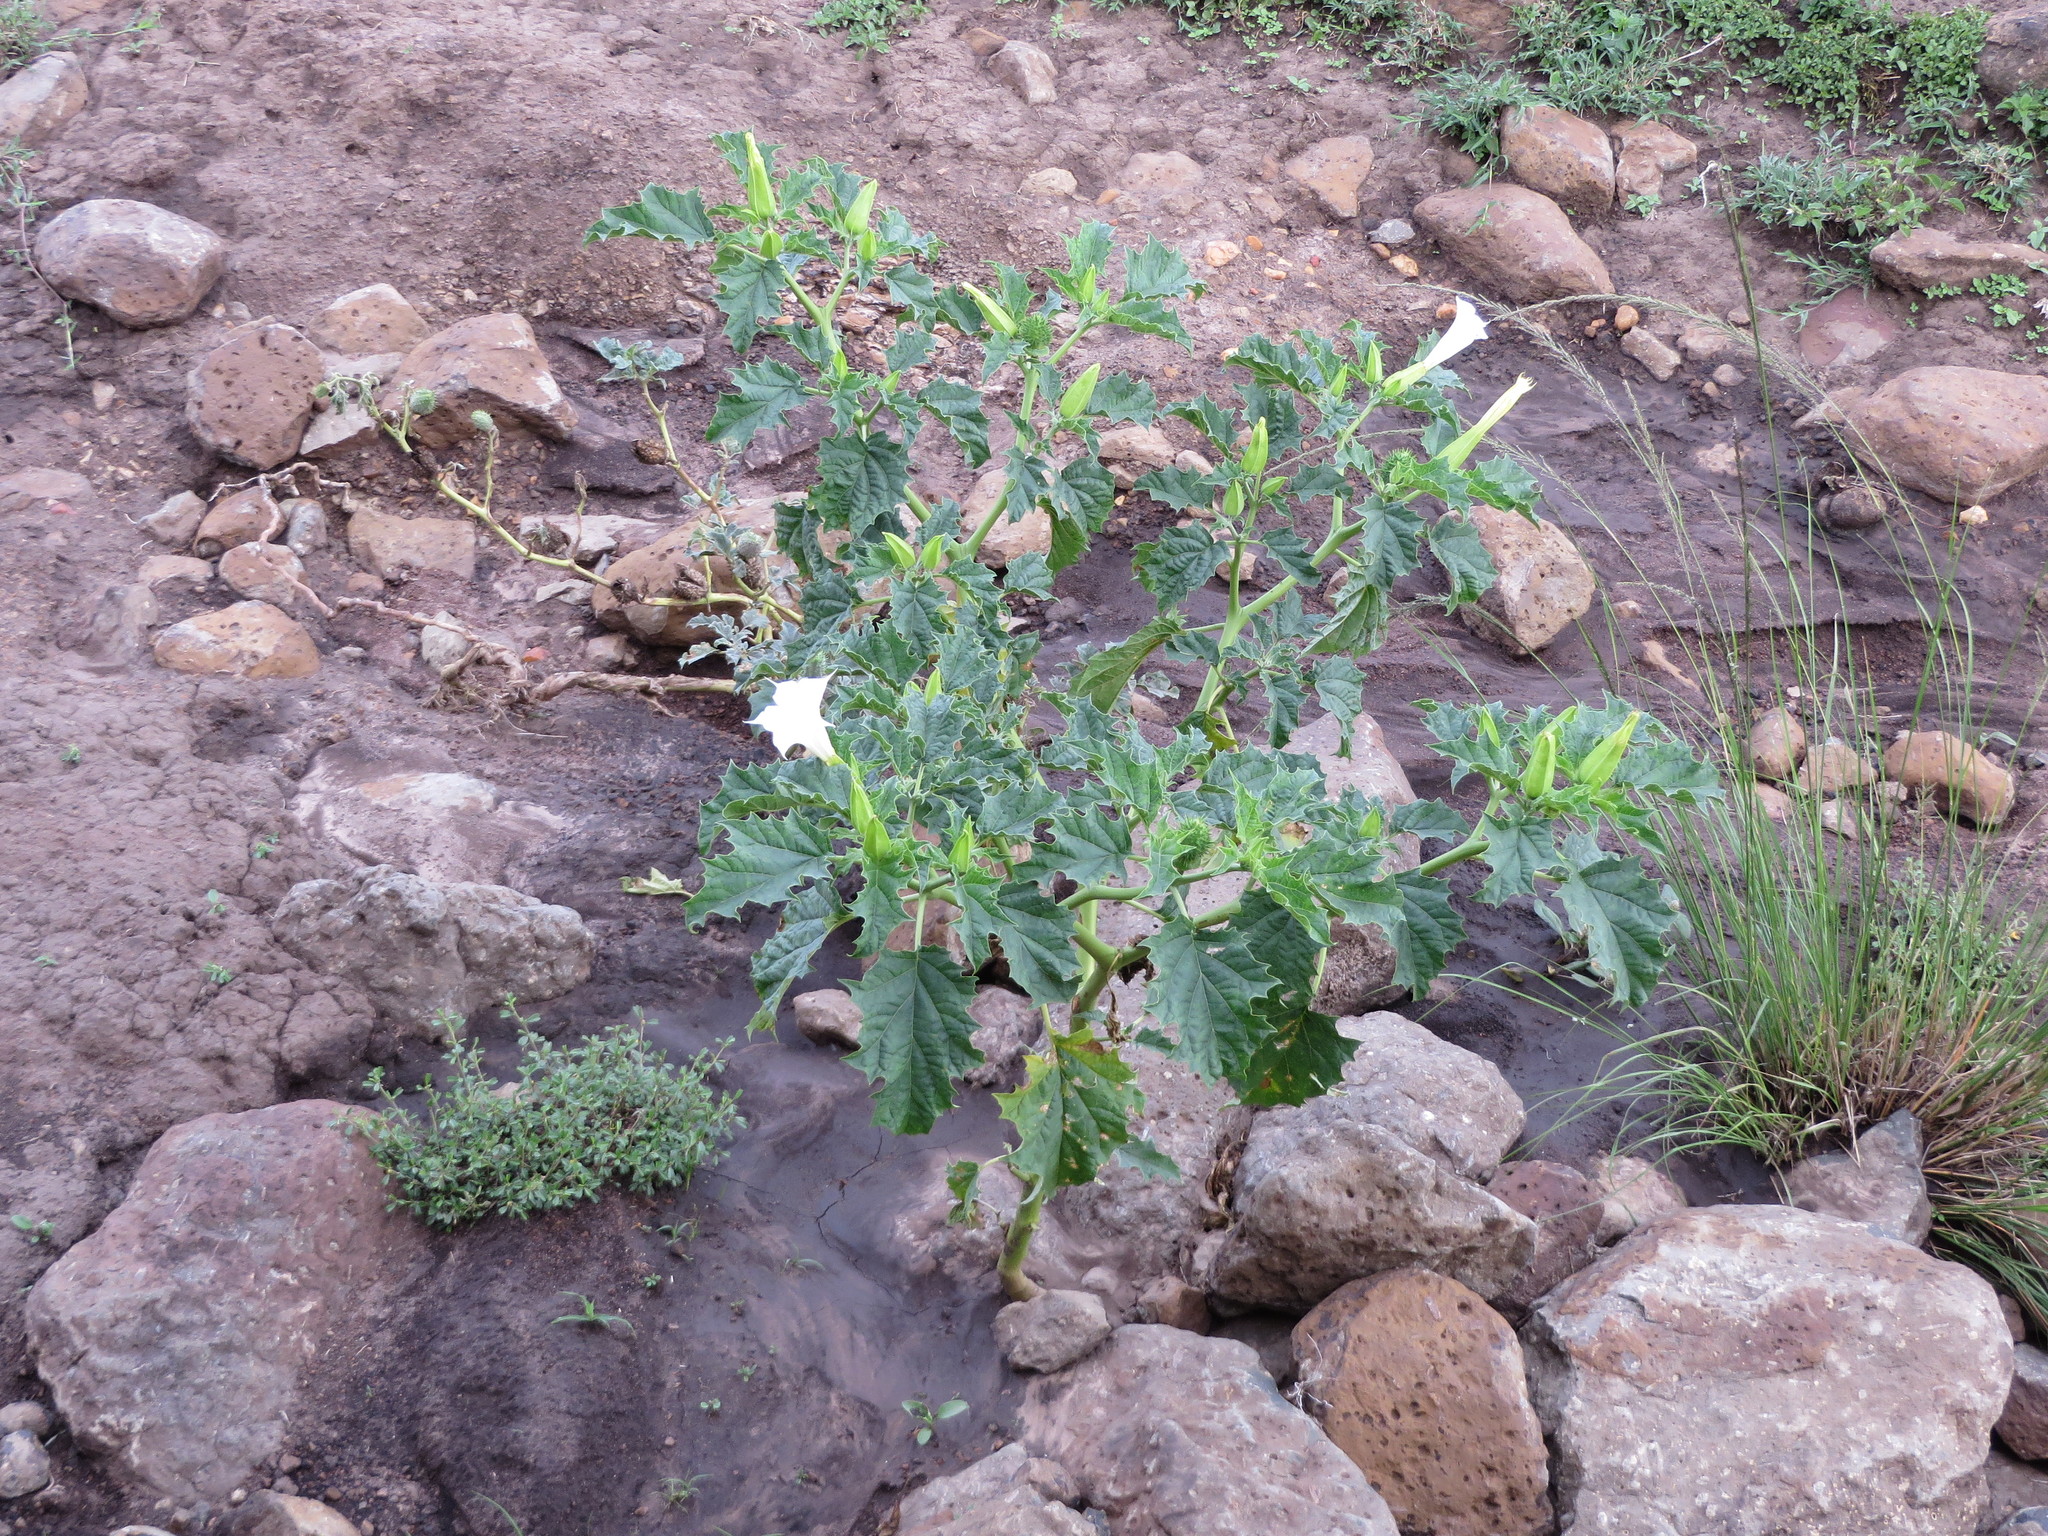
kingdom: Plantae
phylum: Tracheophyta
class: Magnoliopsida
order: Solanales
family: Solanaceae
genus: Datura
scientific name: Datura stramonium
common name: Thorn-apple
